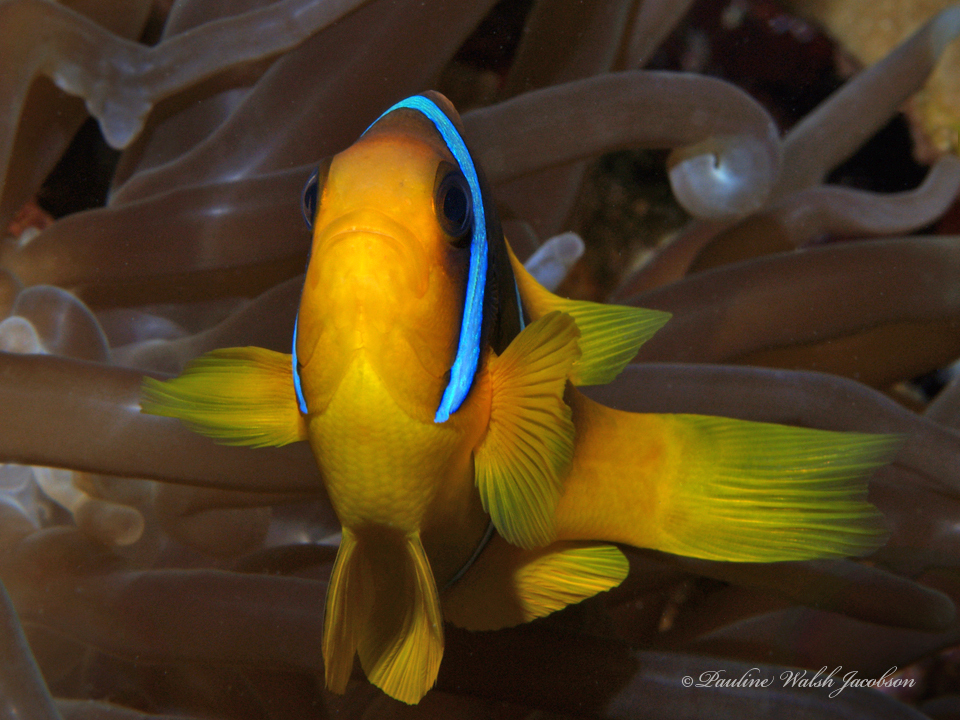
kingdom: Animalia
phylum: Chordata
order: Perciformes
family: Pomacentridae
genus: Amphiprion
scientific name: Amphiprion bicinctus
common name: Two-banded anemonefish
